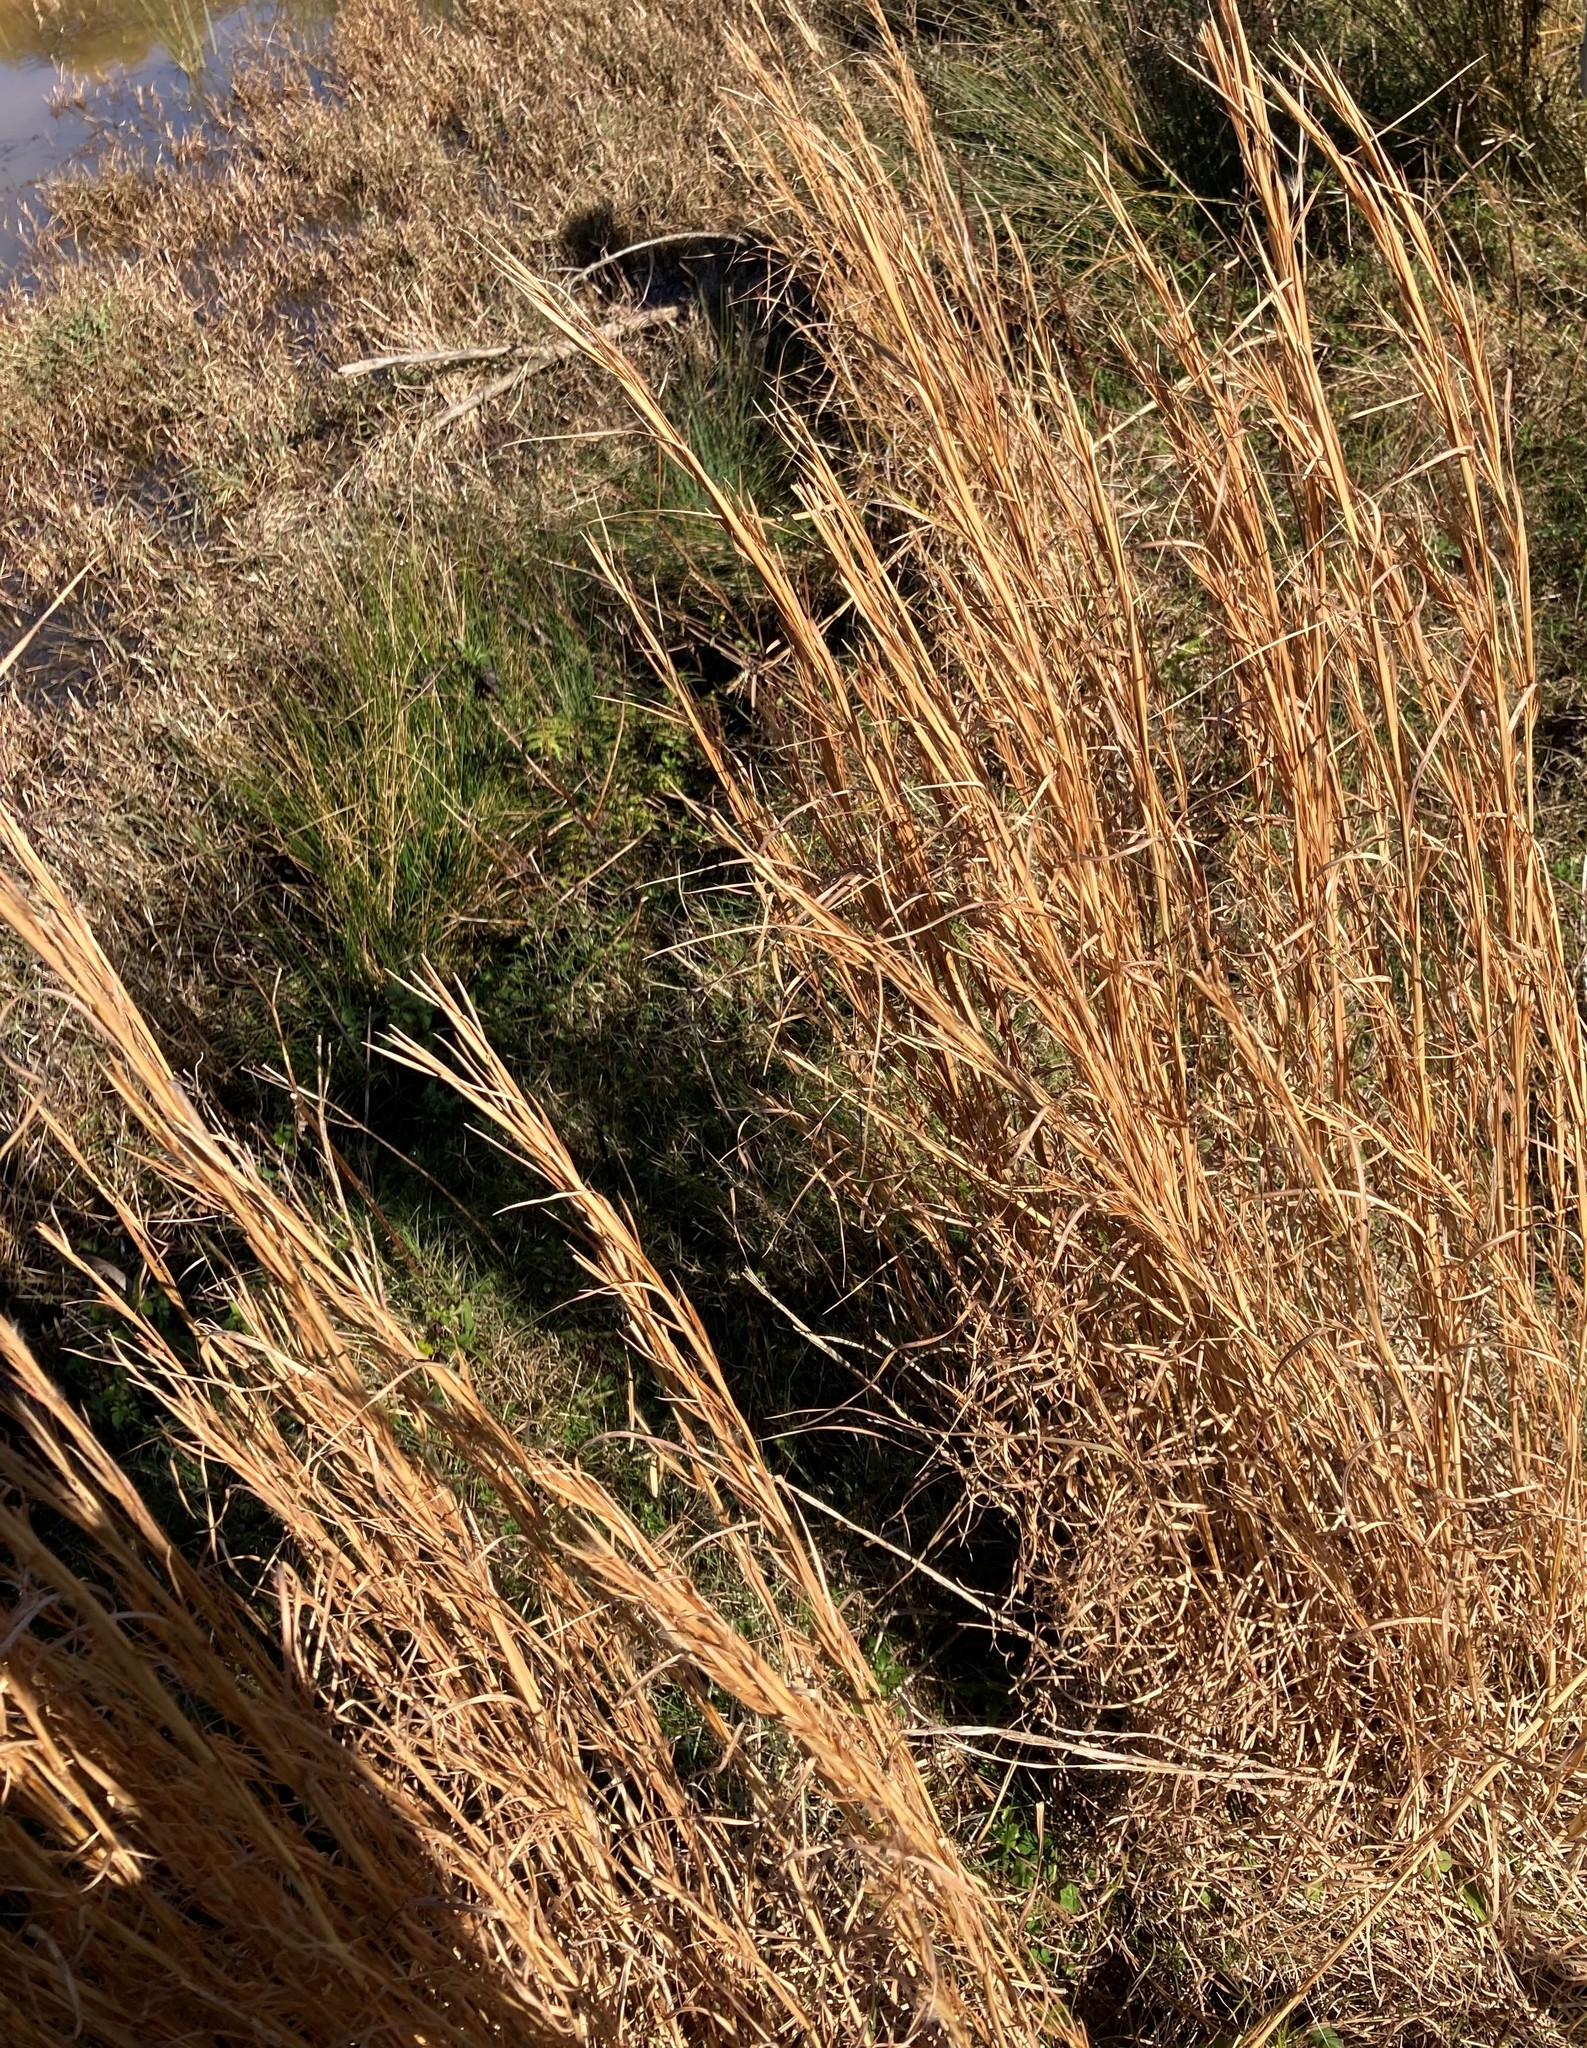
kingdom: Plantae
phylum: Tracheophyta
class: Liliopsida
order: Poales
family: Poaceae
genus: Andropogon
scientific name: Andropogon virginicus
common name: Broomsedge bluestem
